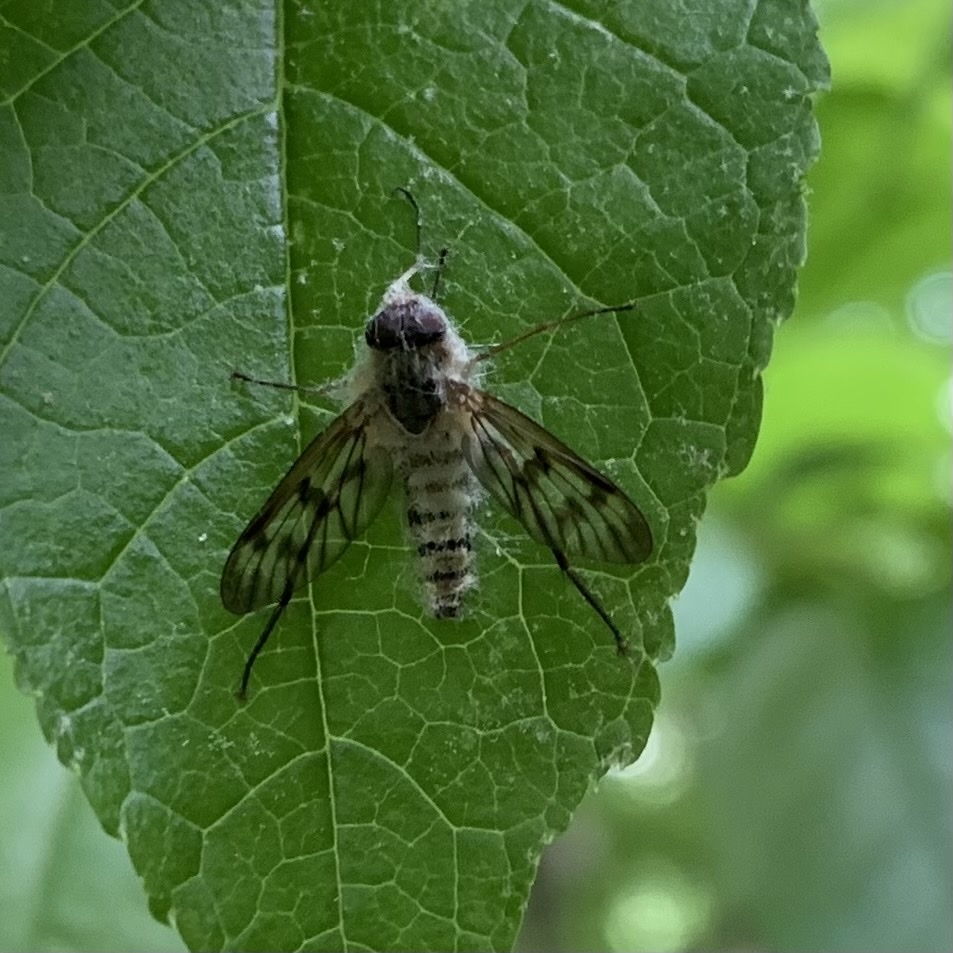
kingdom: Animalia
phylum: Arthropoda
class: Insecta
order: Diptera
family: Rhagionidae
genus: Rhagio
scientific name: Rhagio mystaceus
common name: Common snipe fly
